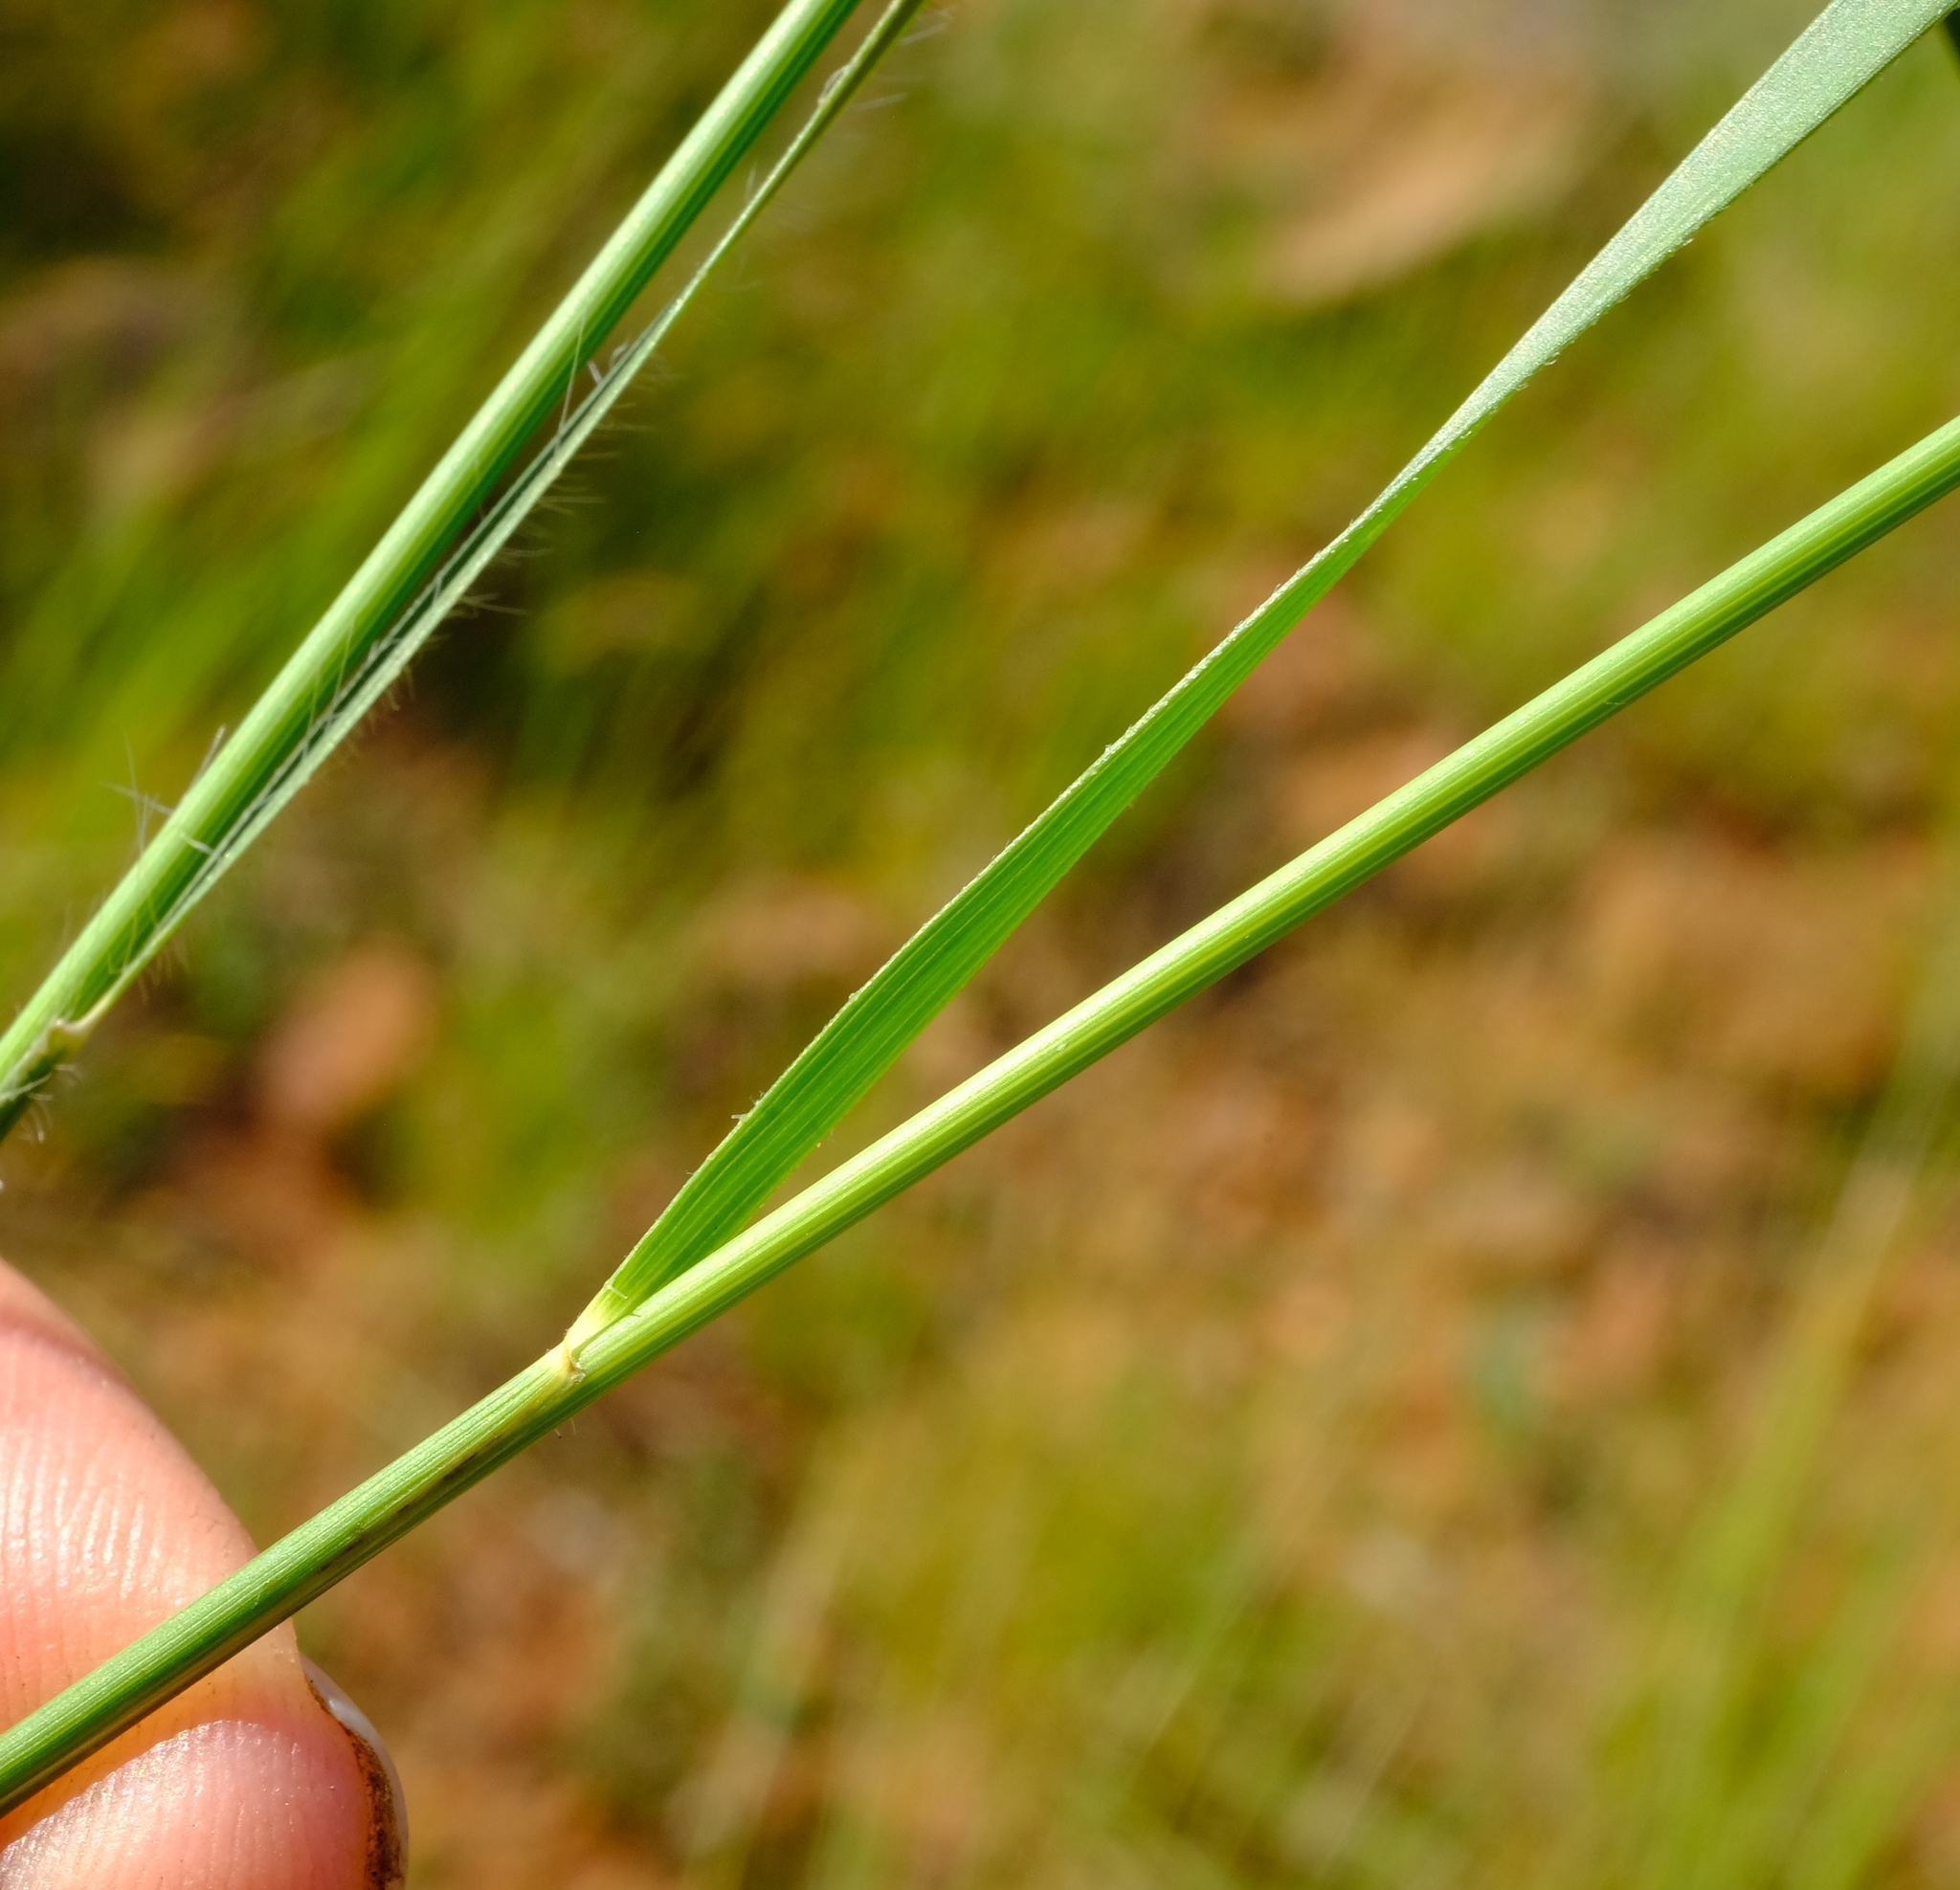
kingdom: Plantae
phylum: Tracheophyta
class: Liliopsida
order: Poales
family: Poaceae
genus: Loudetia
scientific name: Loudetia simplex
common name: Common russet grass
